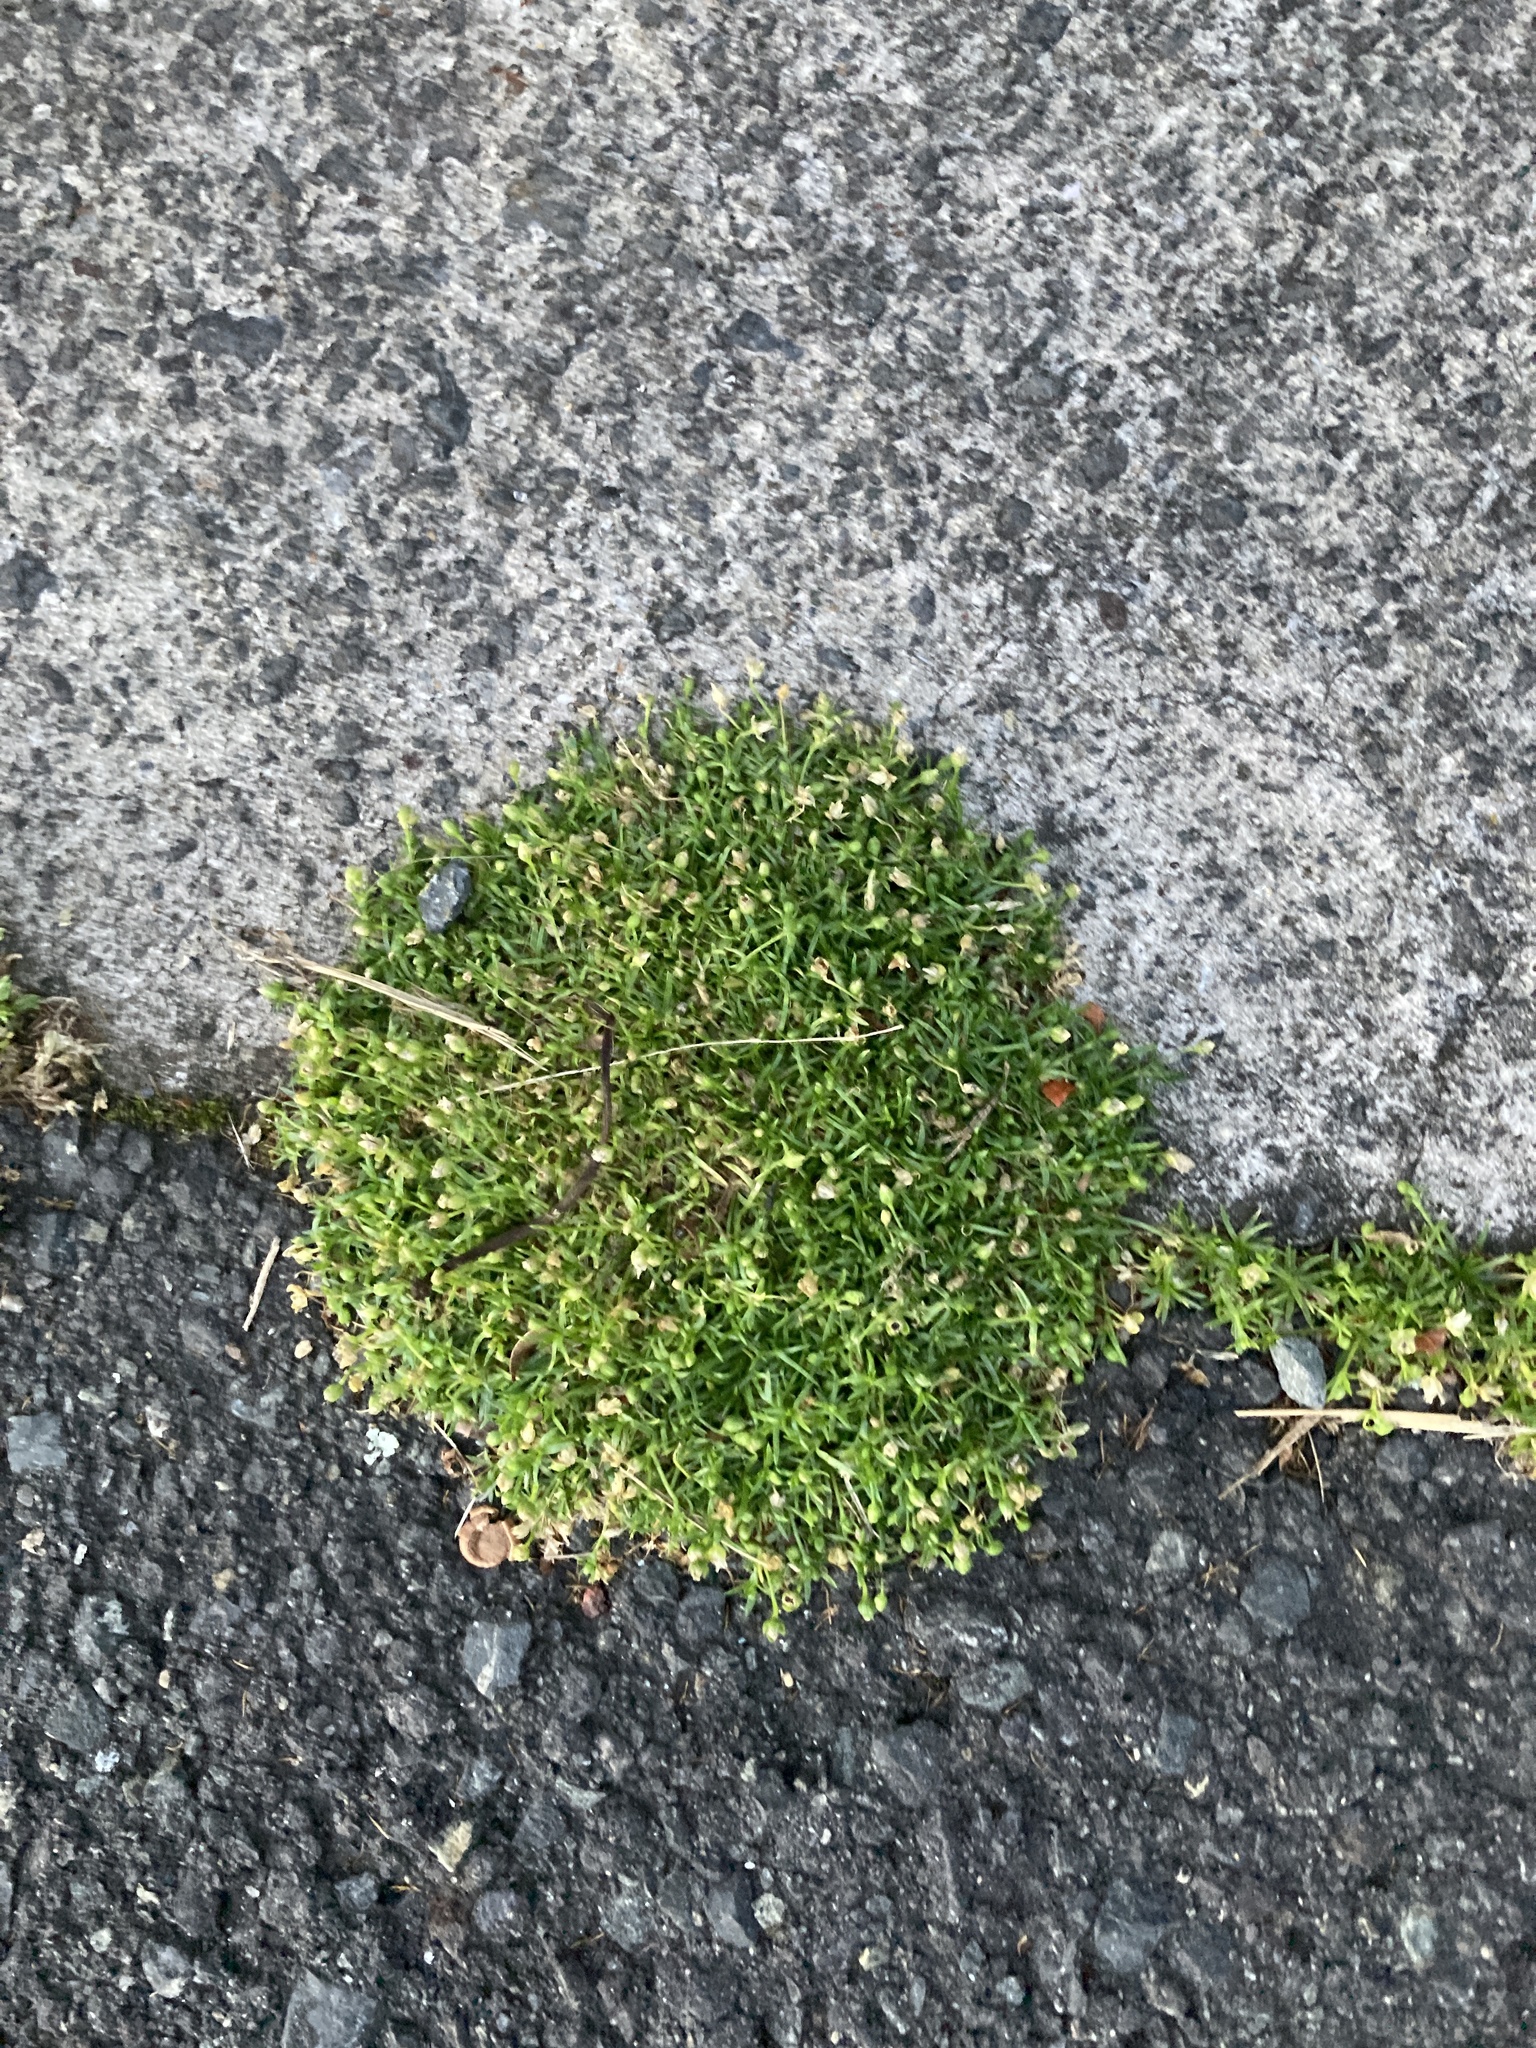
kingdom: Plantae
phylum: Tracheophyta
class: Magnoliopsida
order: Caryophyllales
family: Caryophyllaceae
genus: Sagina
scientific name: Sagina procumbens
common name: Procumbent pearlwort
